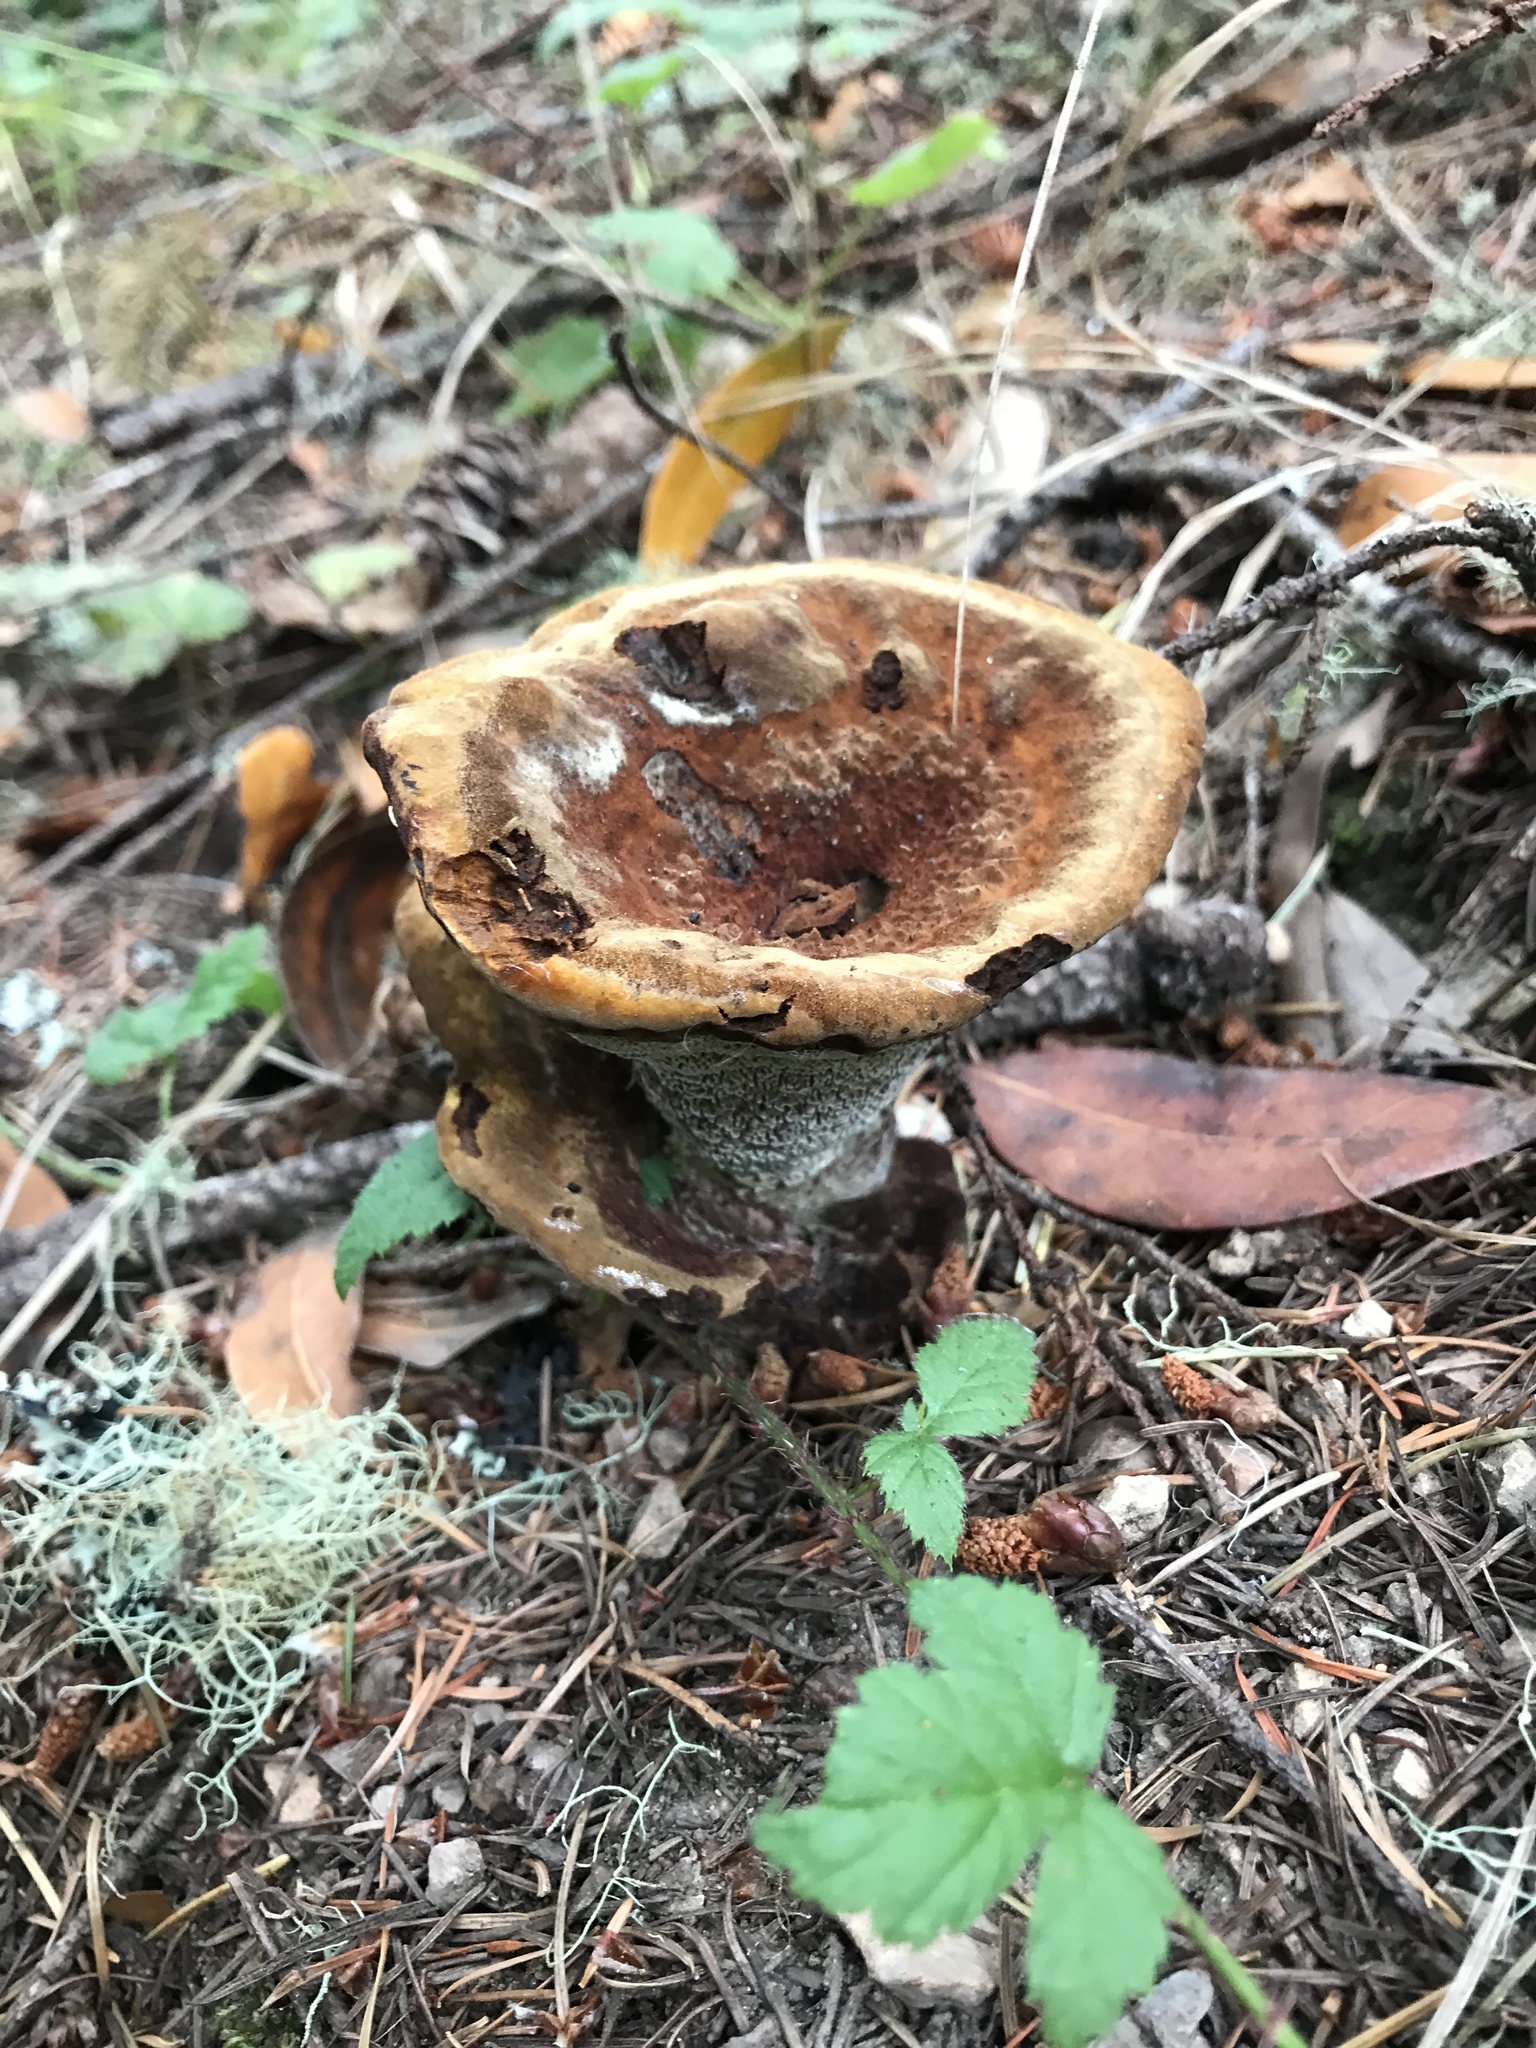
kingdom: Fungi
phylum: Basidiomycota
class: Agaricomycetes
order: Polyporales
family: Laetiporaceae
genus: Phaeolus
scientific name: Phaeolus schweinitzii
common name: Dyer's mazegill
